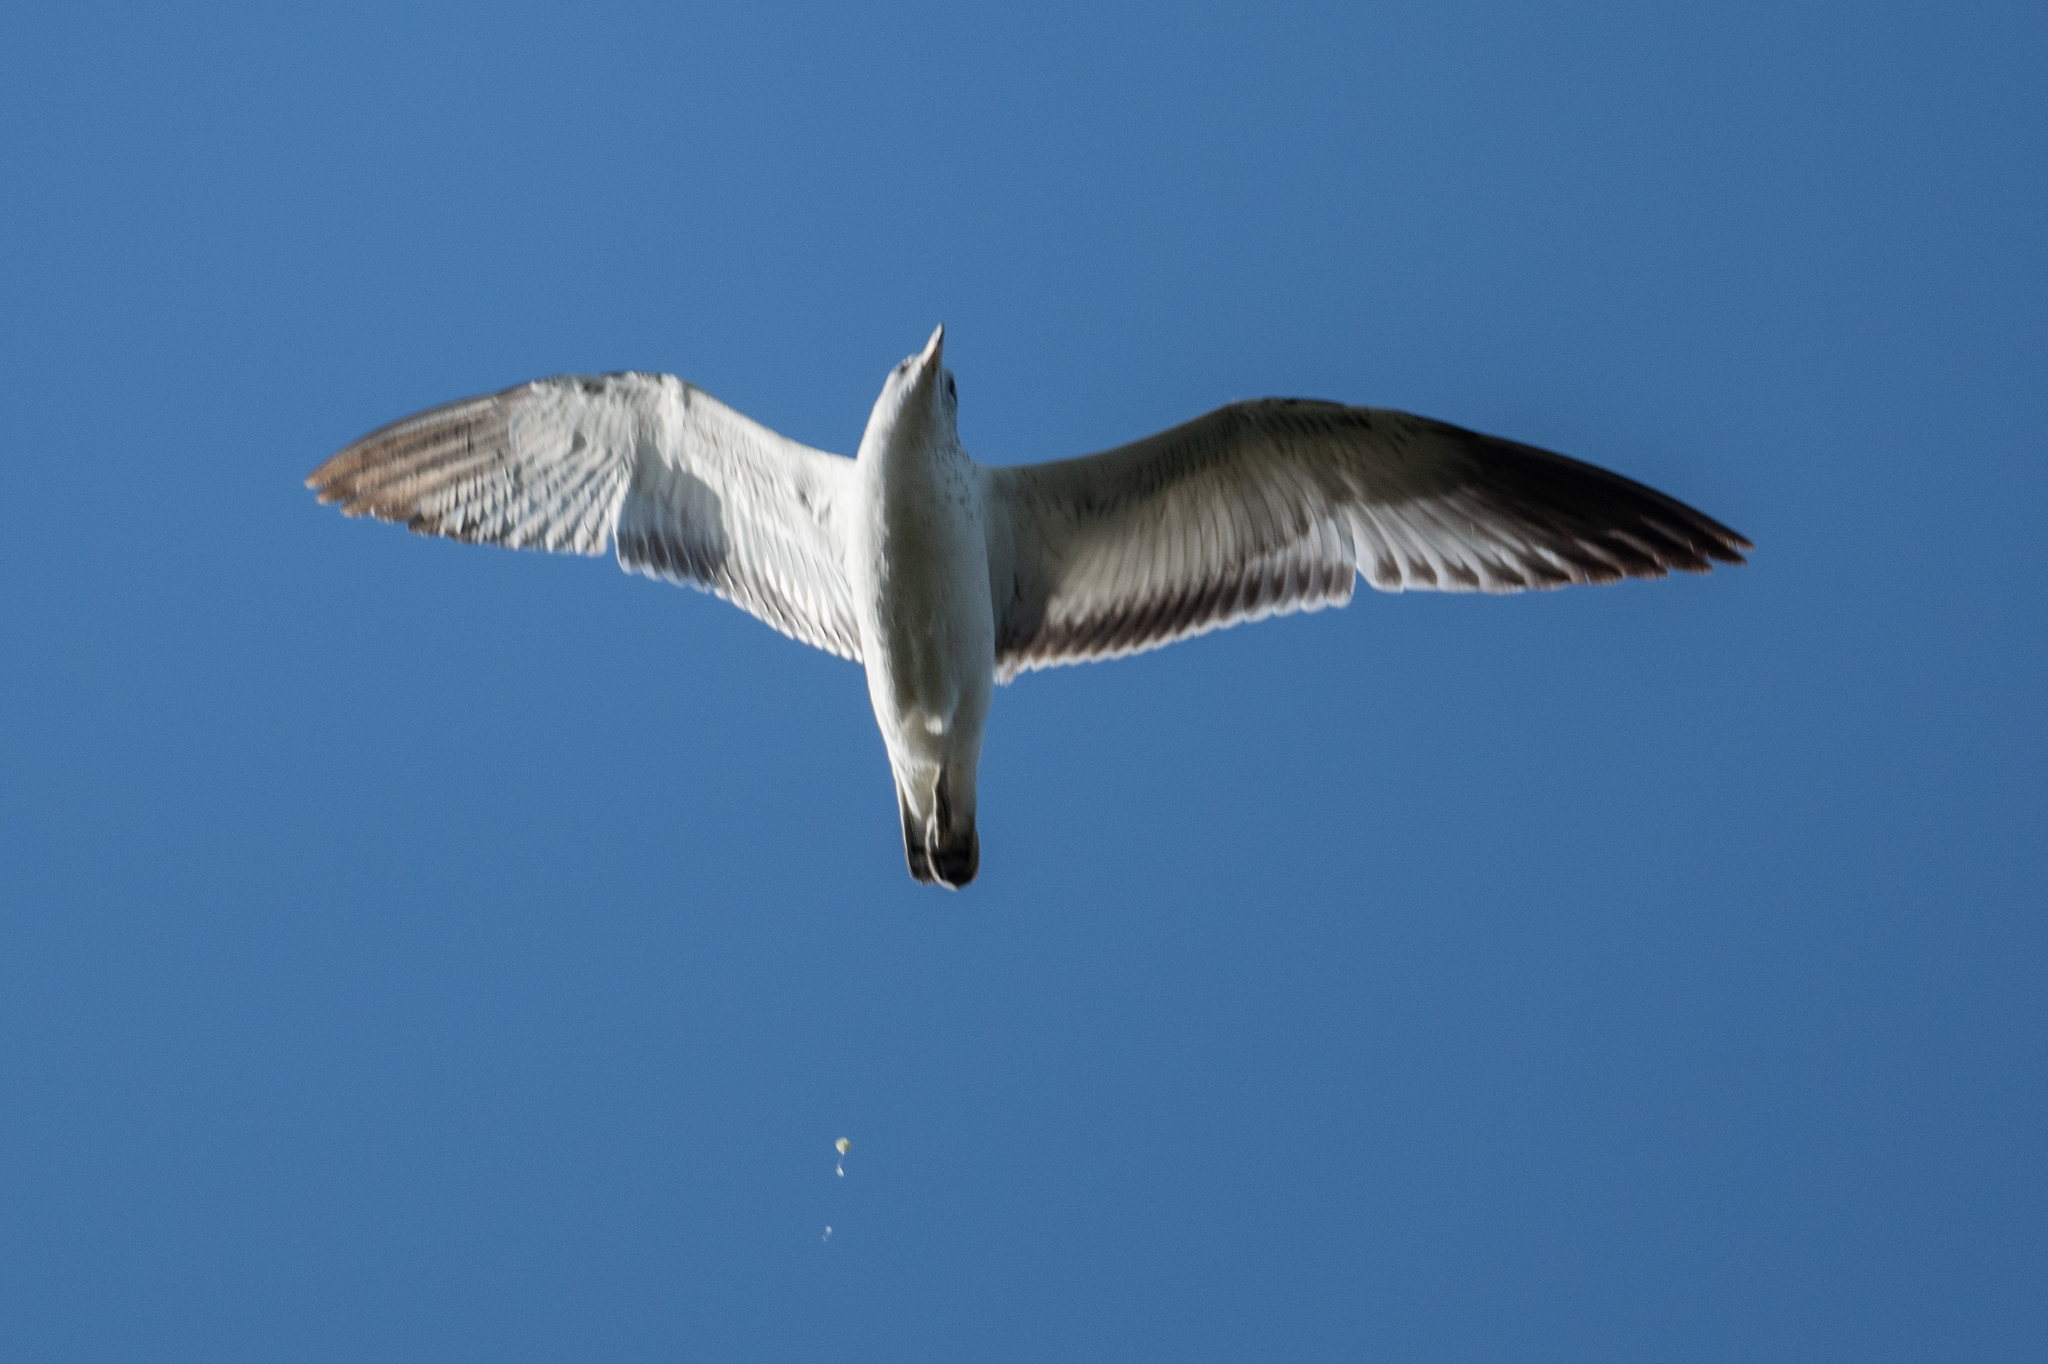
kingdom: Animalia
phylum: Chordata
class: Aves
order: Charadriiformes
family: Laridae
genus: Larus
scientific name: Larus delawarensis
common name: Ring-billed gull
